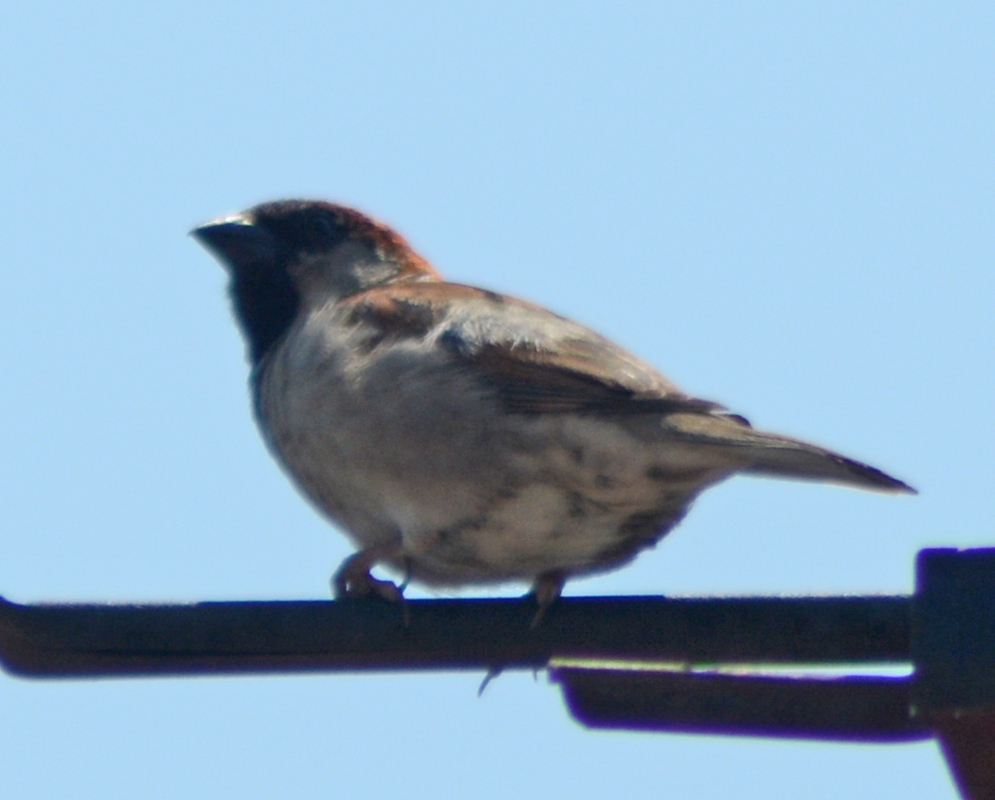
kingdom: Animalia
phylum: Chordata
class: Aves
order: Passeriformes
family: Passeridae
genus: Passer
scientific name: Passer domesticus
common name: House sparrow
